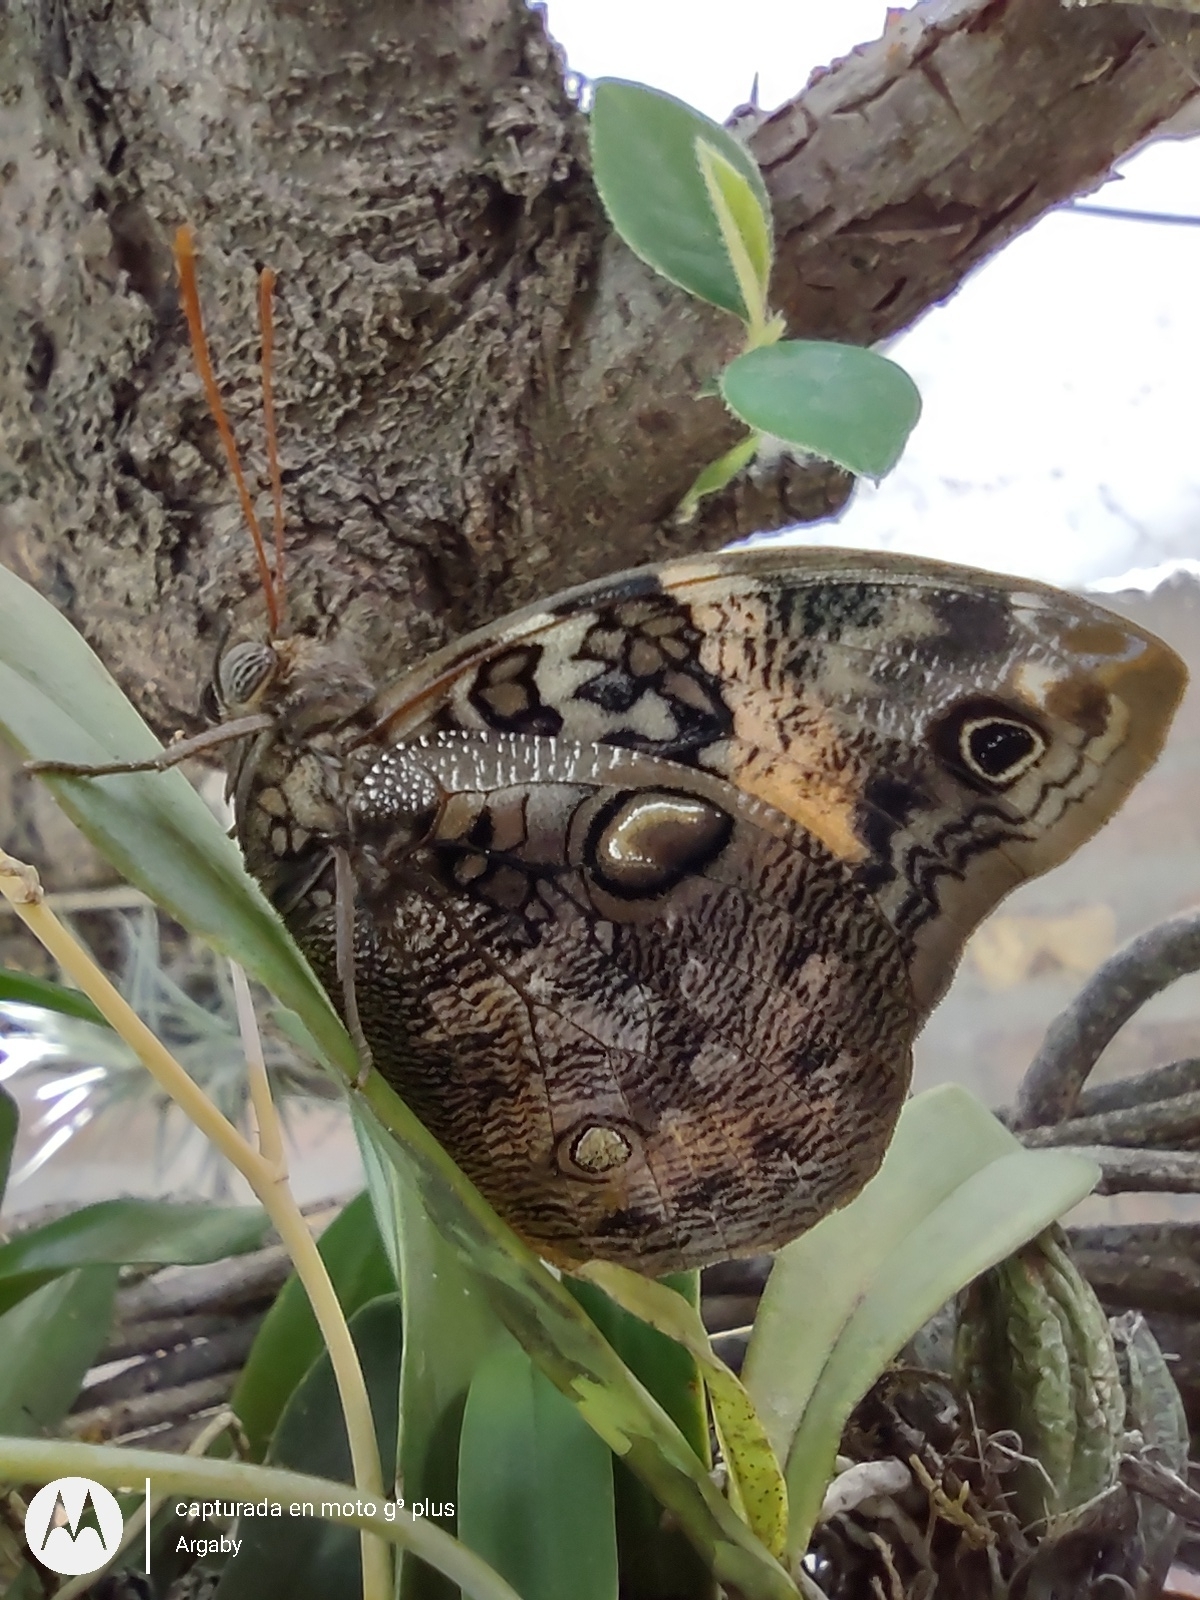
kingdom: Animalia
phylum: Arthropoda
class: Insecta
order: Lepidoptera
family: Nymphalidae
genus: Opsiphanes
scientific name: Opsiphanes invirae
